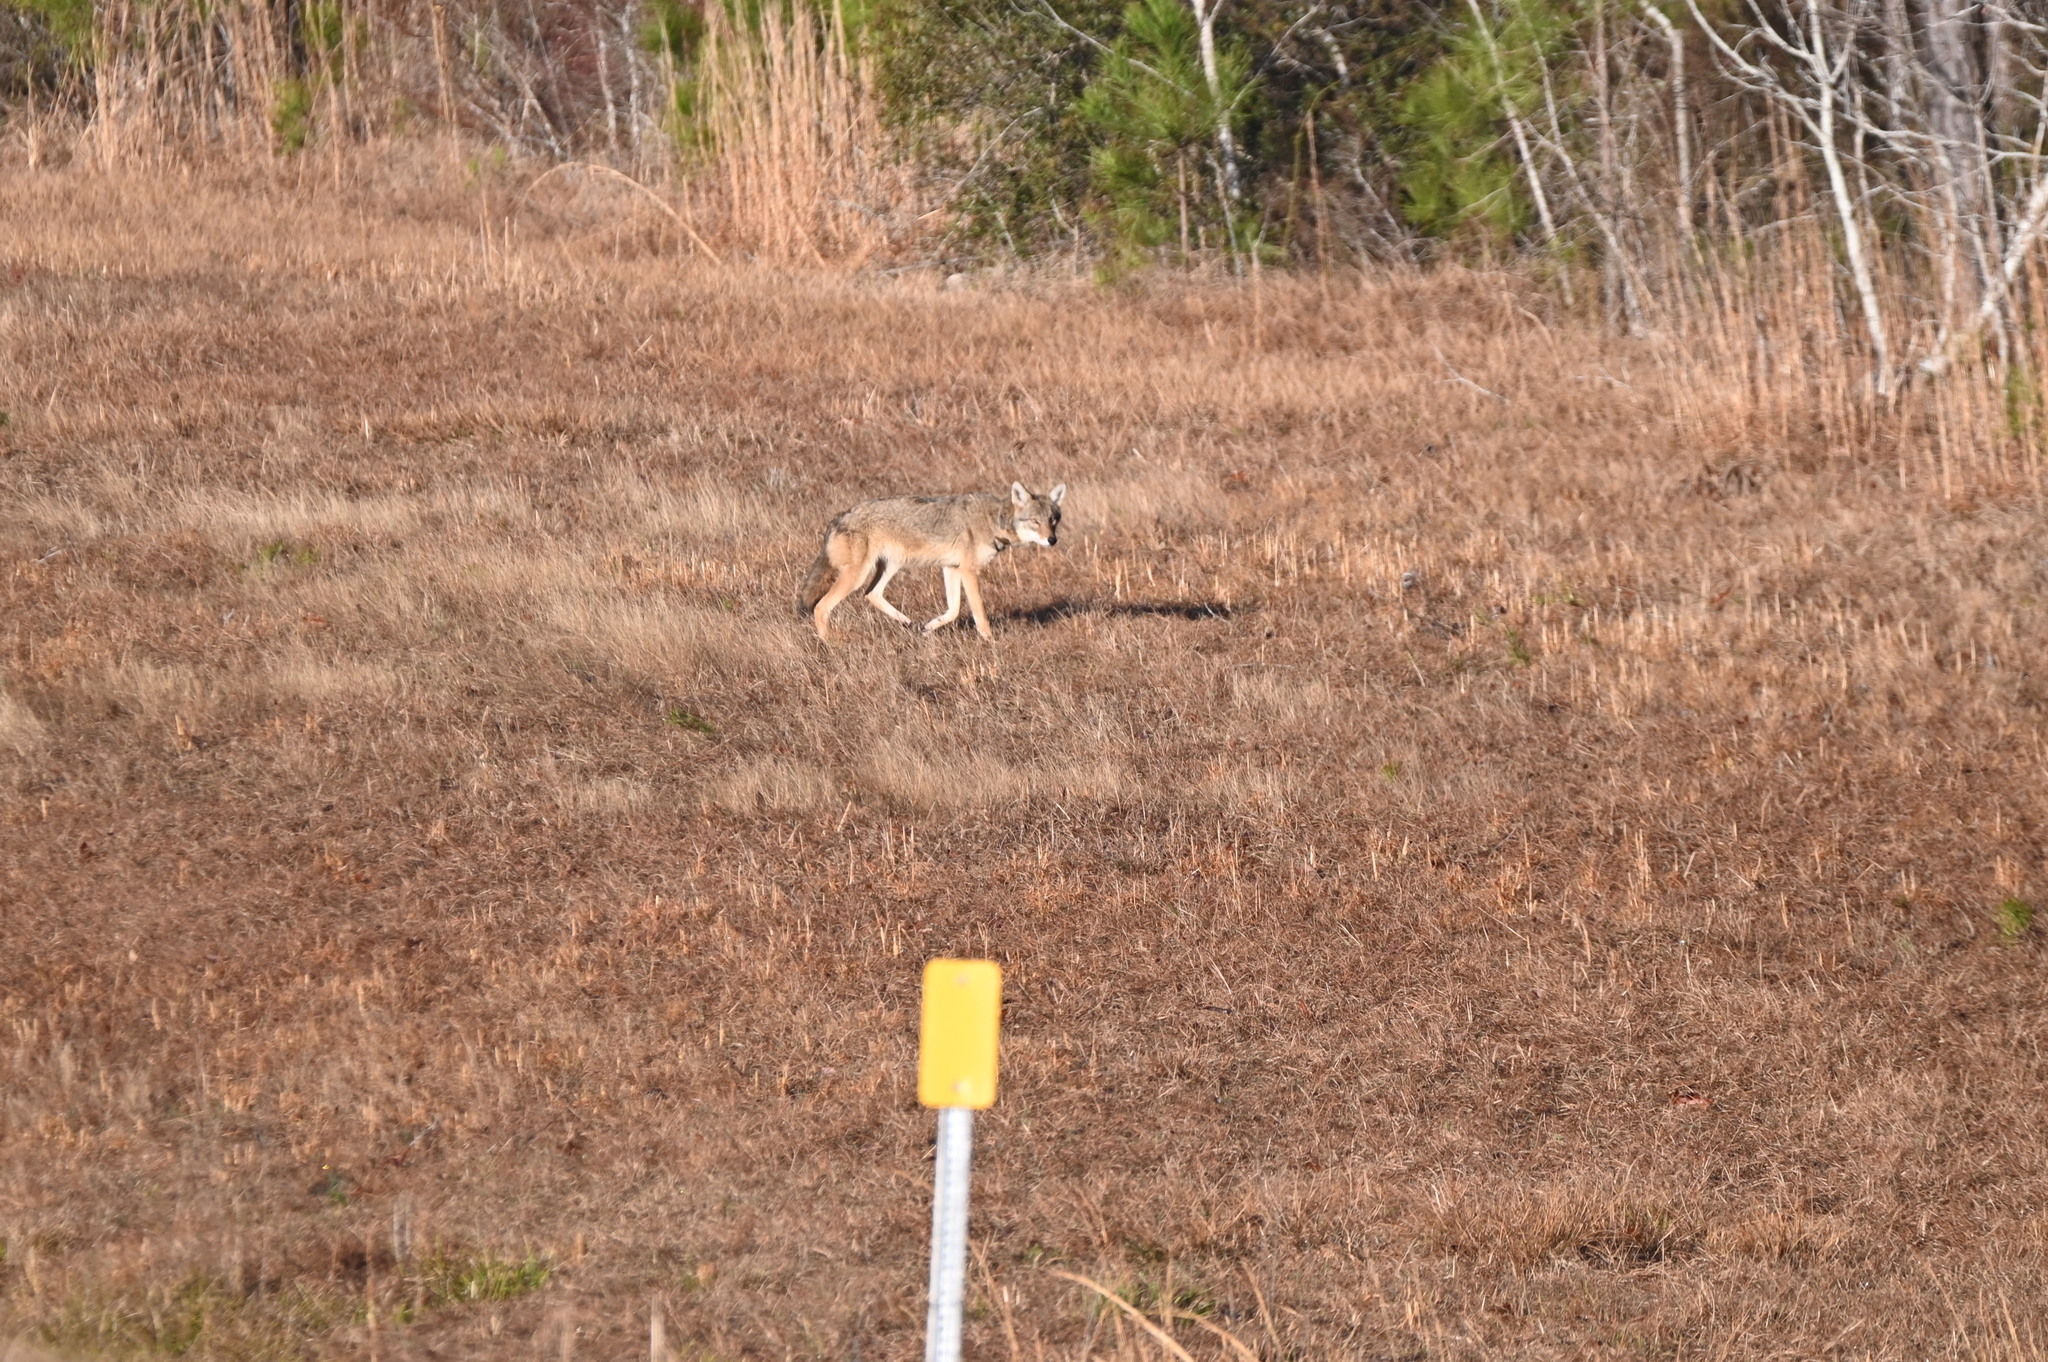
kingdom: Animalia
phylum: Chordata
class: Mammalia
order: Carnivora
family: Canidae
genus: Canis
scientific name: Canis latrans
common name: Coyote
